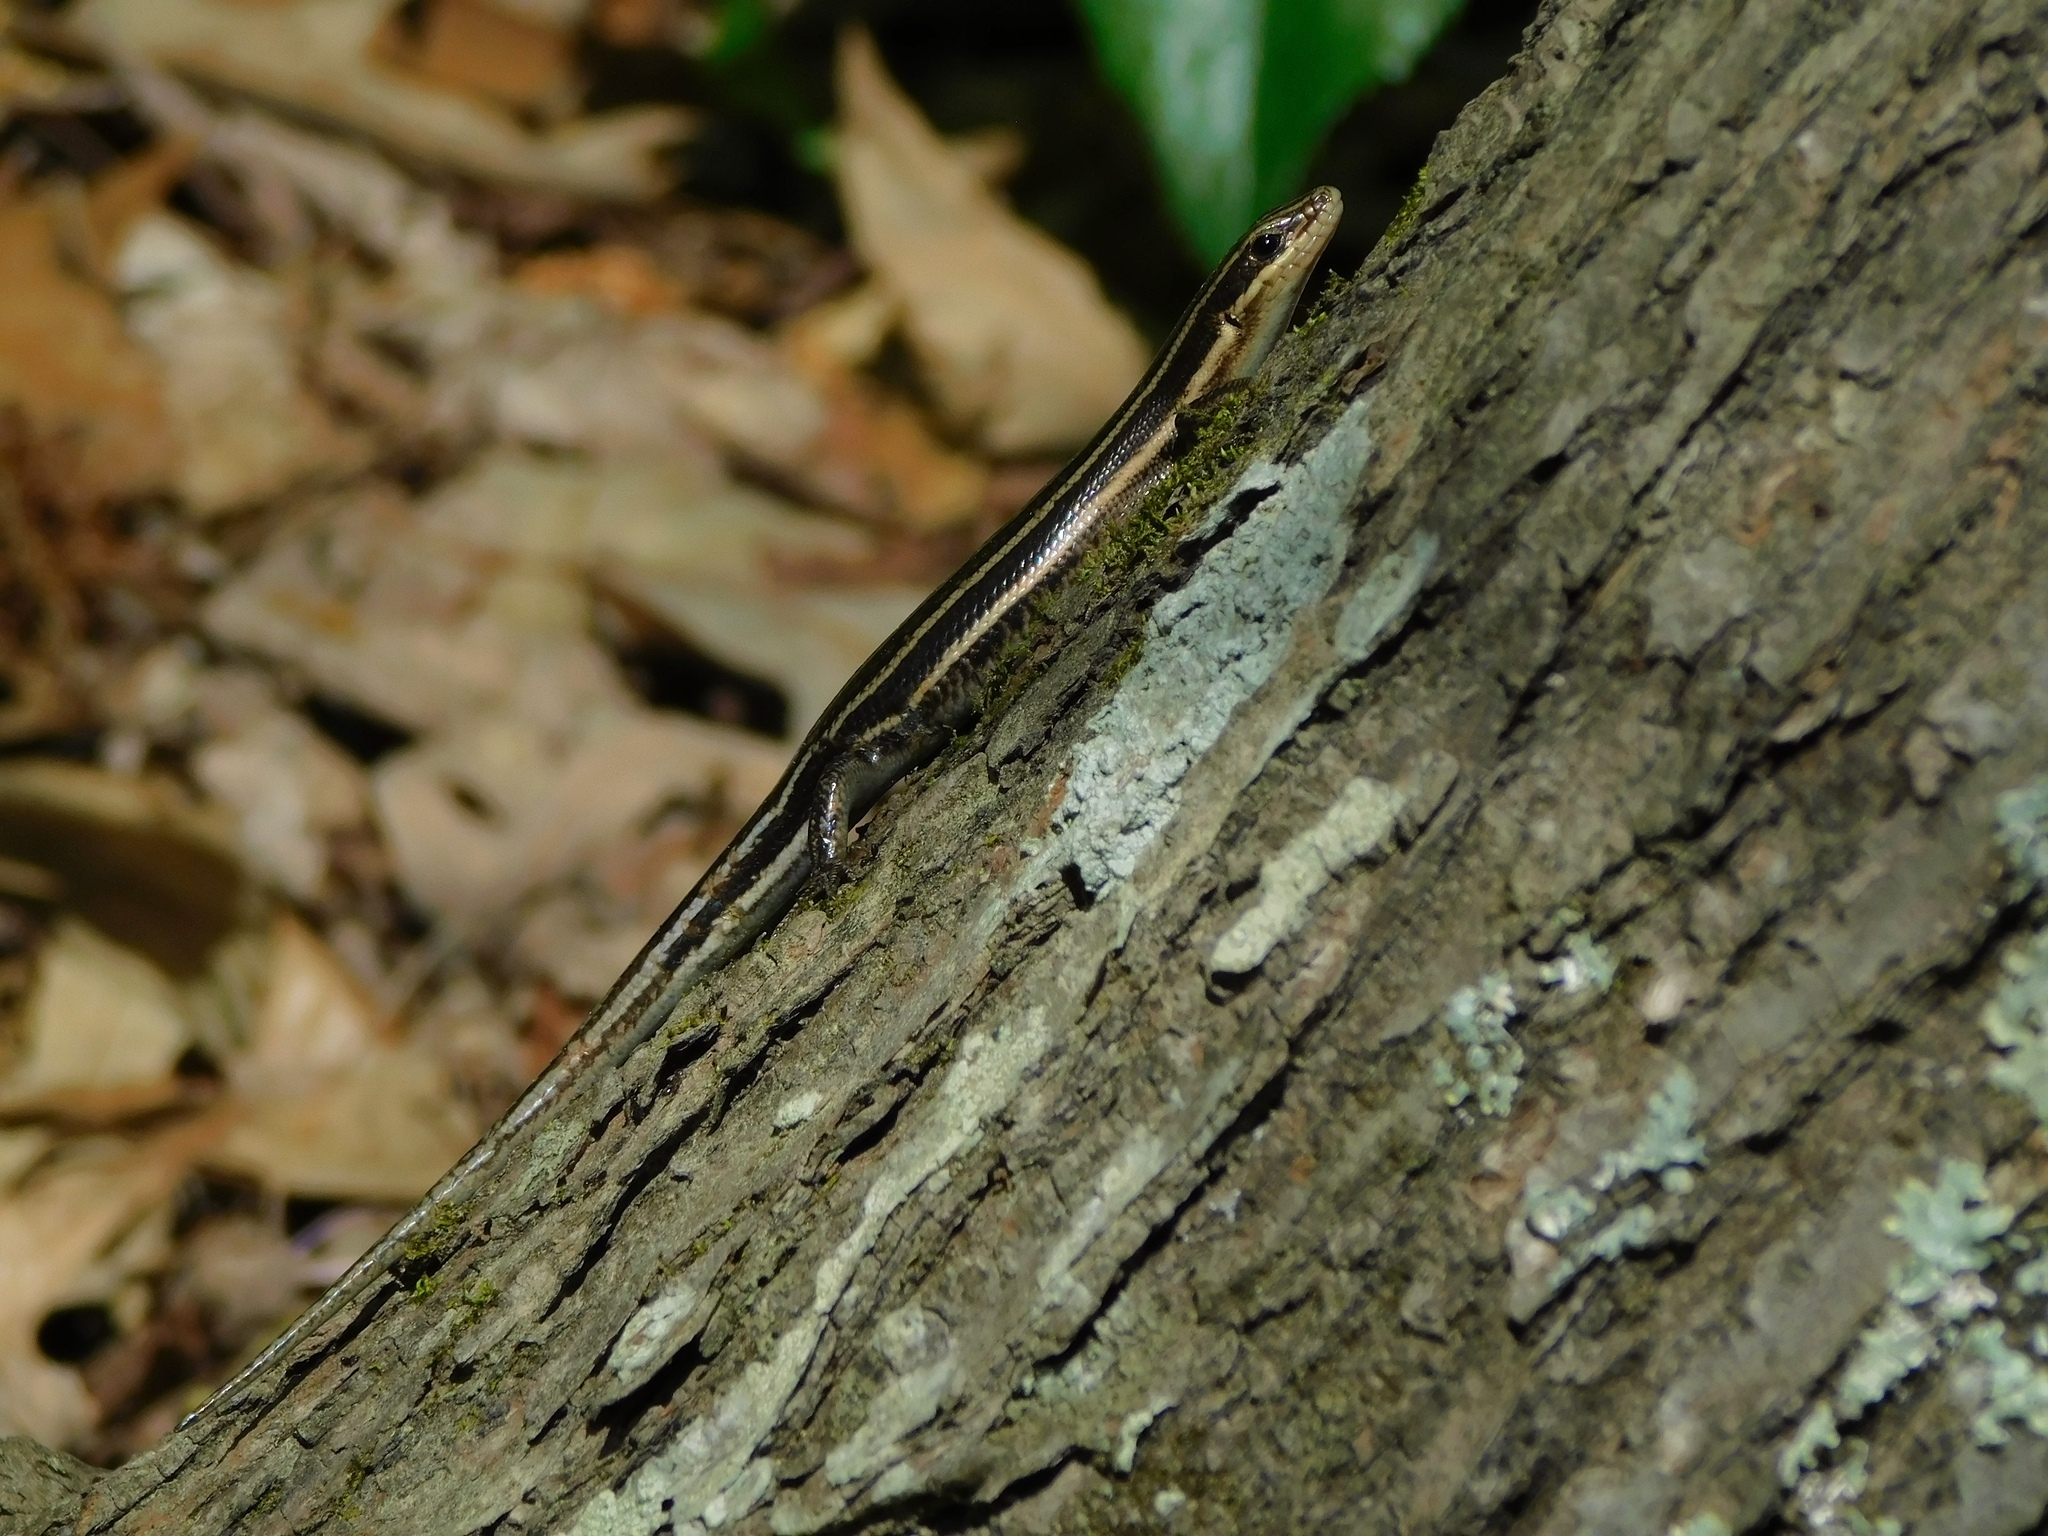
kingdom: Animalia
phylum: Chordata
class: Squamata
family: Scincidae
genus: Plestiodon
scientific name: Plestiodon fasciatus
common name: Five-lined skink
